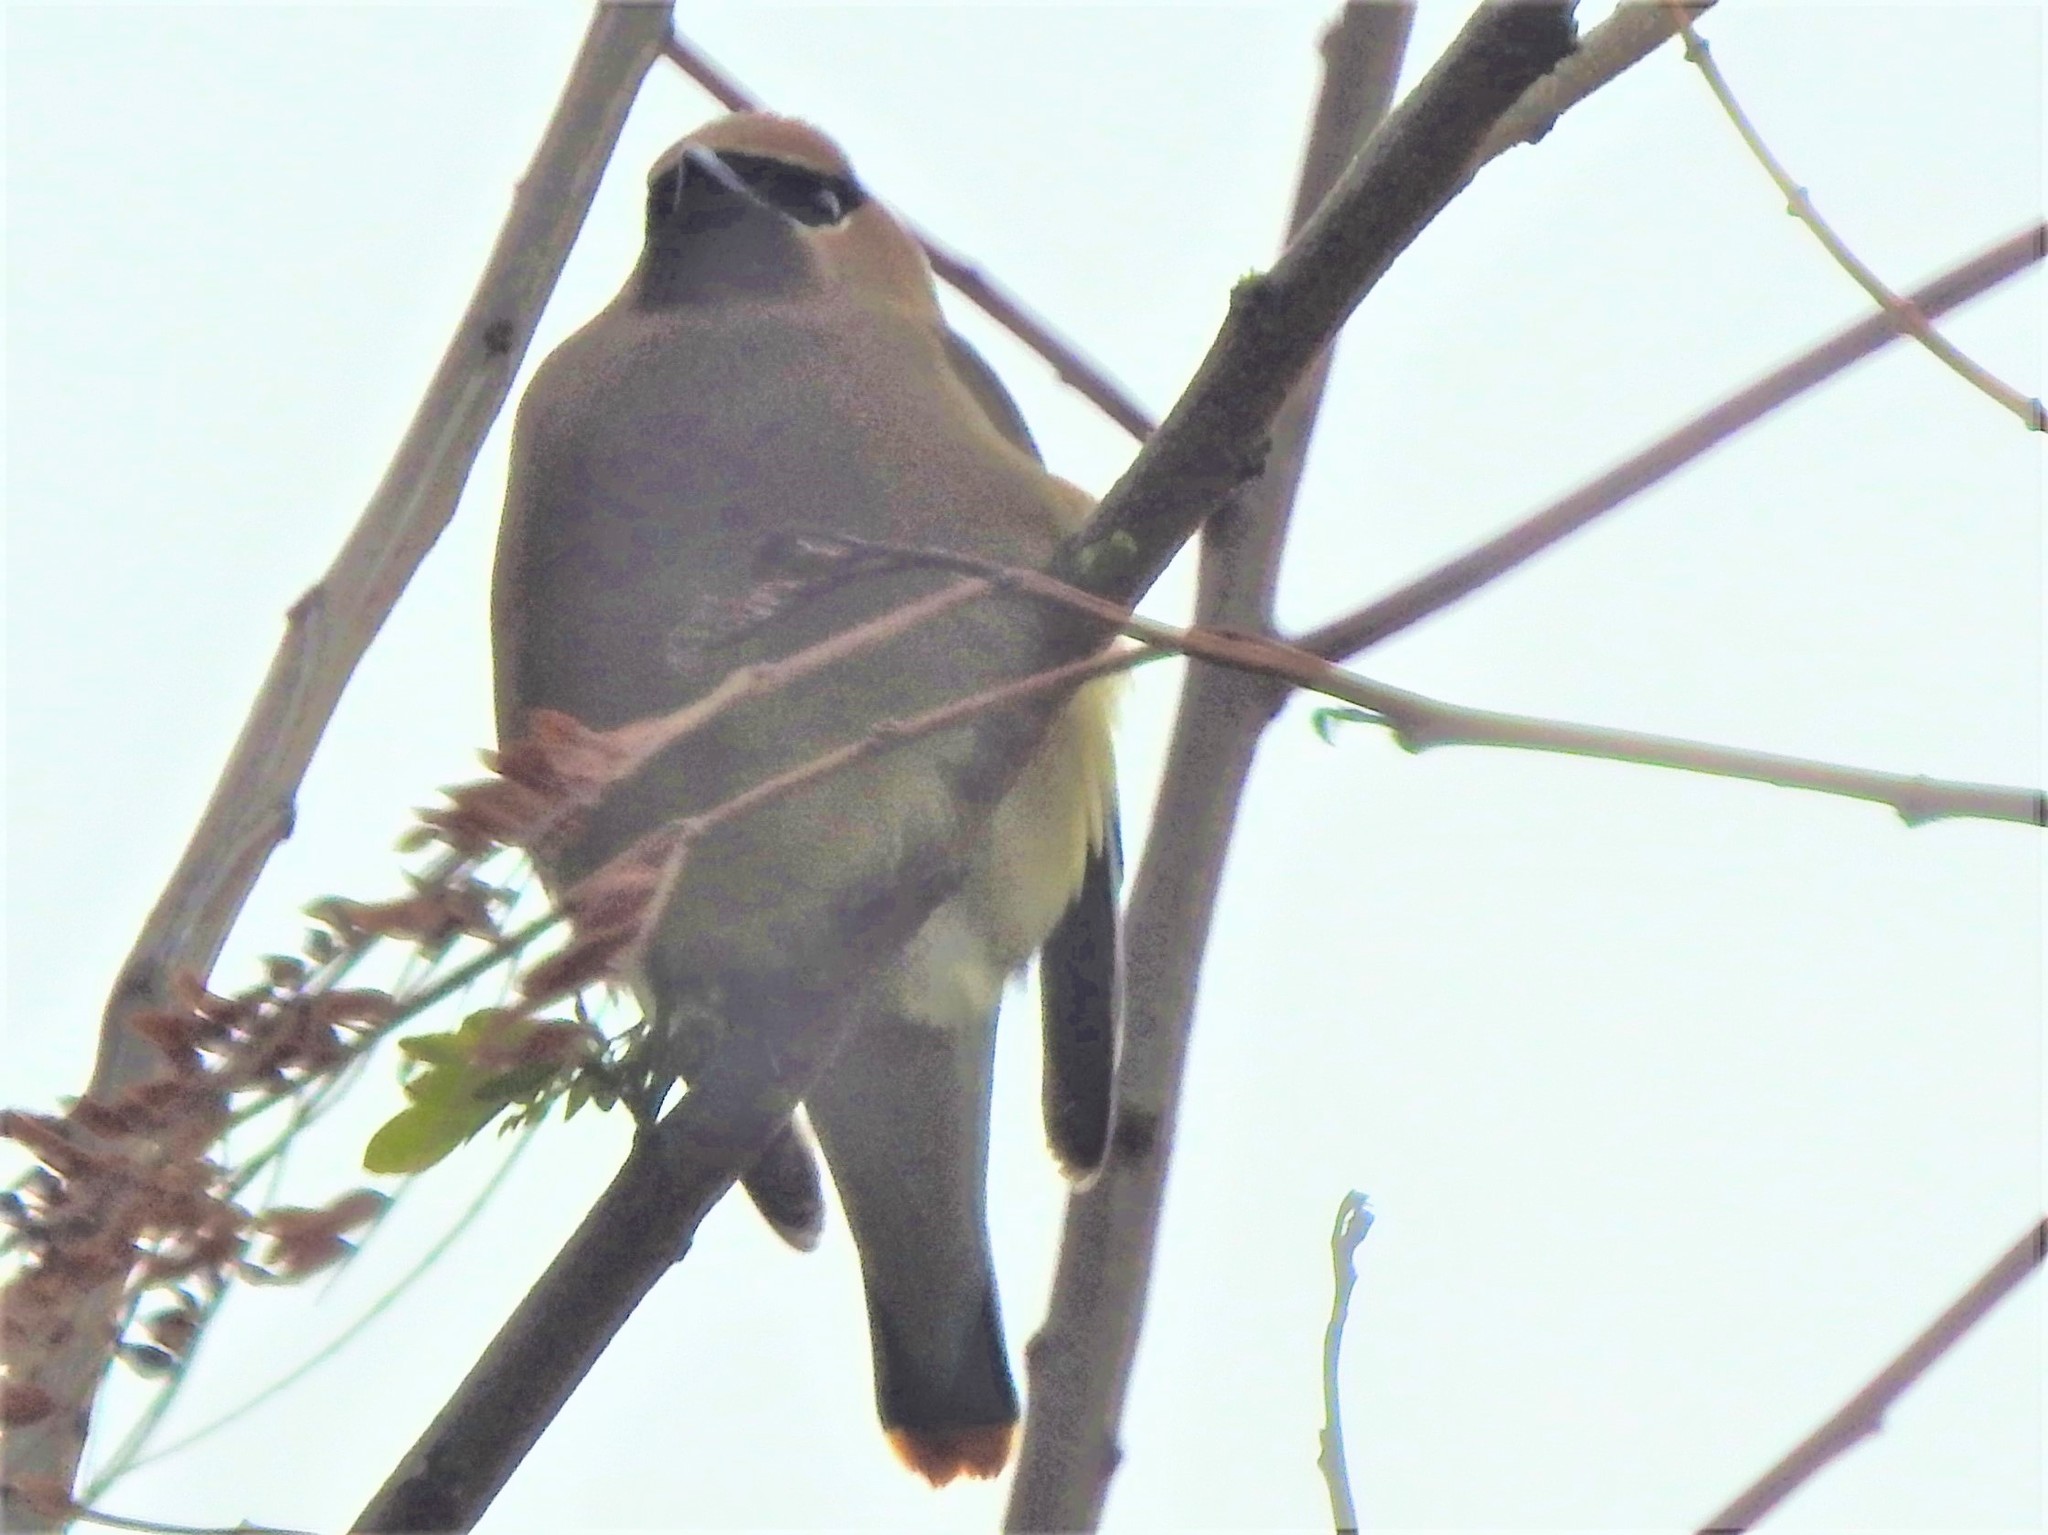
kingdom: Animalia
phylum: Chordata
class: Aves
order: Passeriformes
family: Bombycillidae
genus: Bombycilla
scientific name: Bombycilla cedrorum
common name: Cedar waxwing
